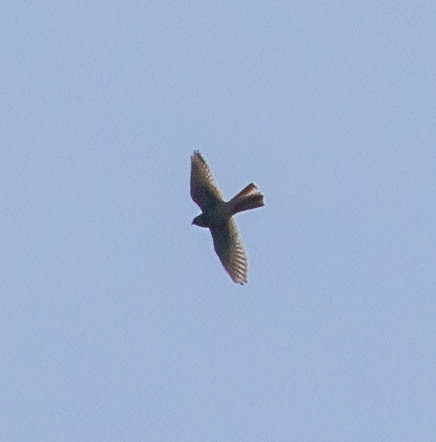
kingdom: Animalia
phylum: Chordata
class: Aves
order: Falconiformes
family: Falconidae
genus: Falco
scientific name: Falco sparverius
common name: American kestrel
